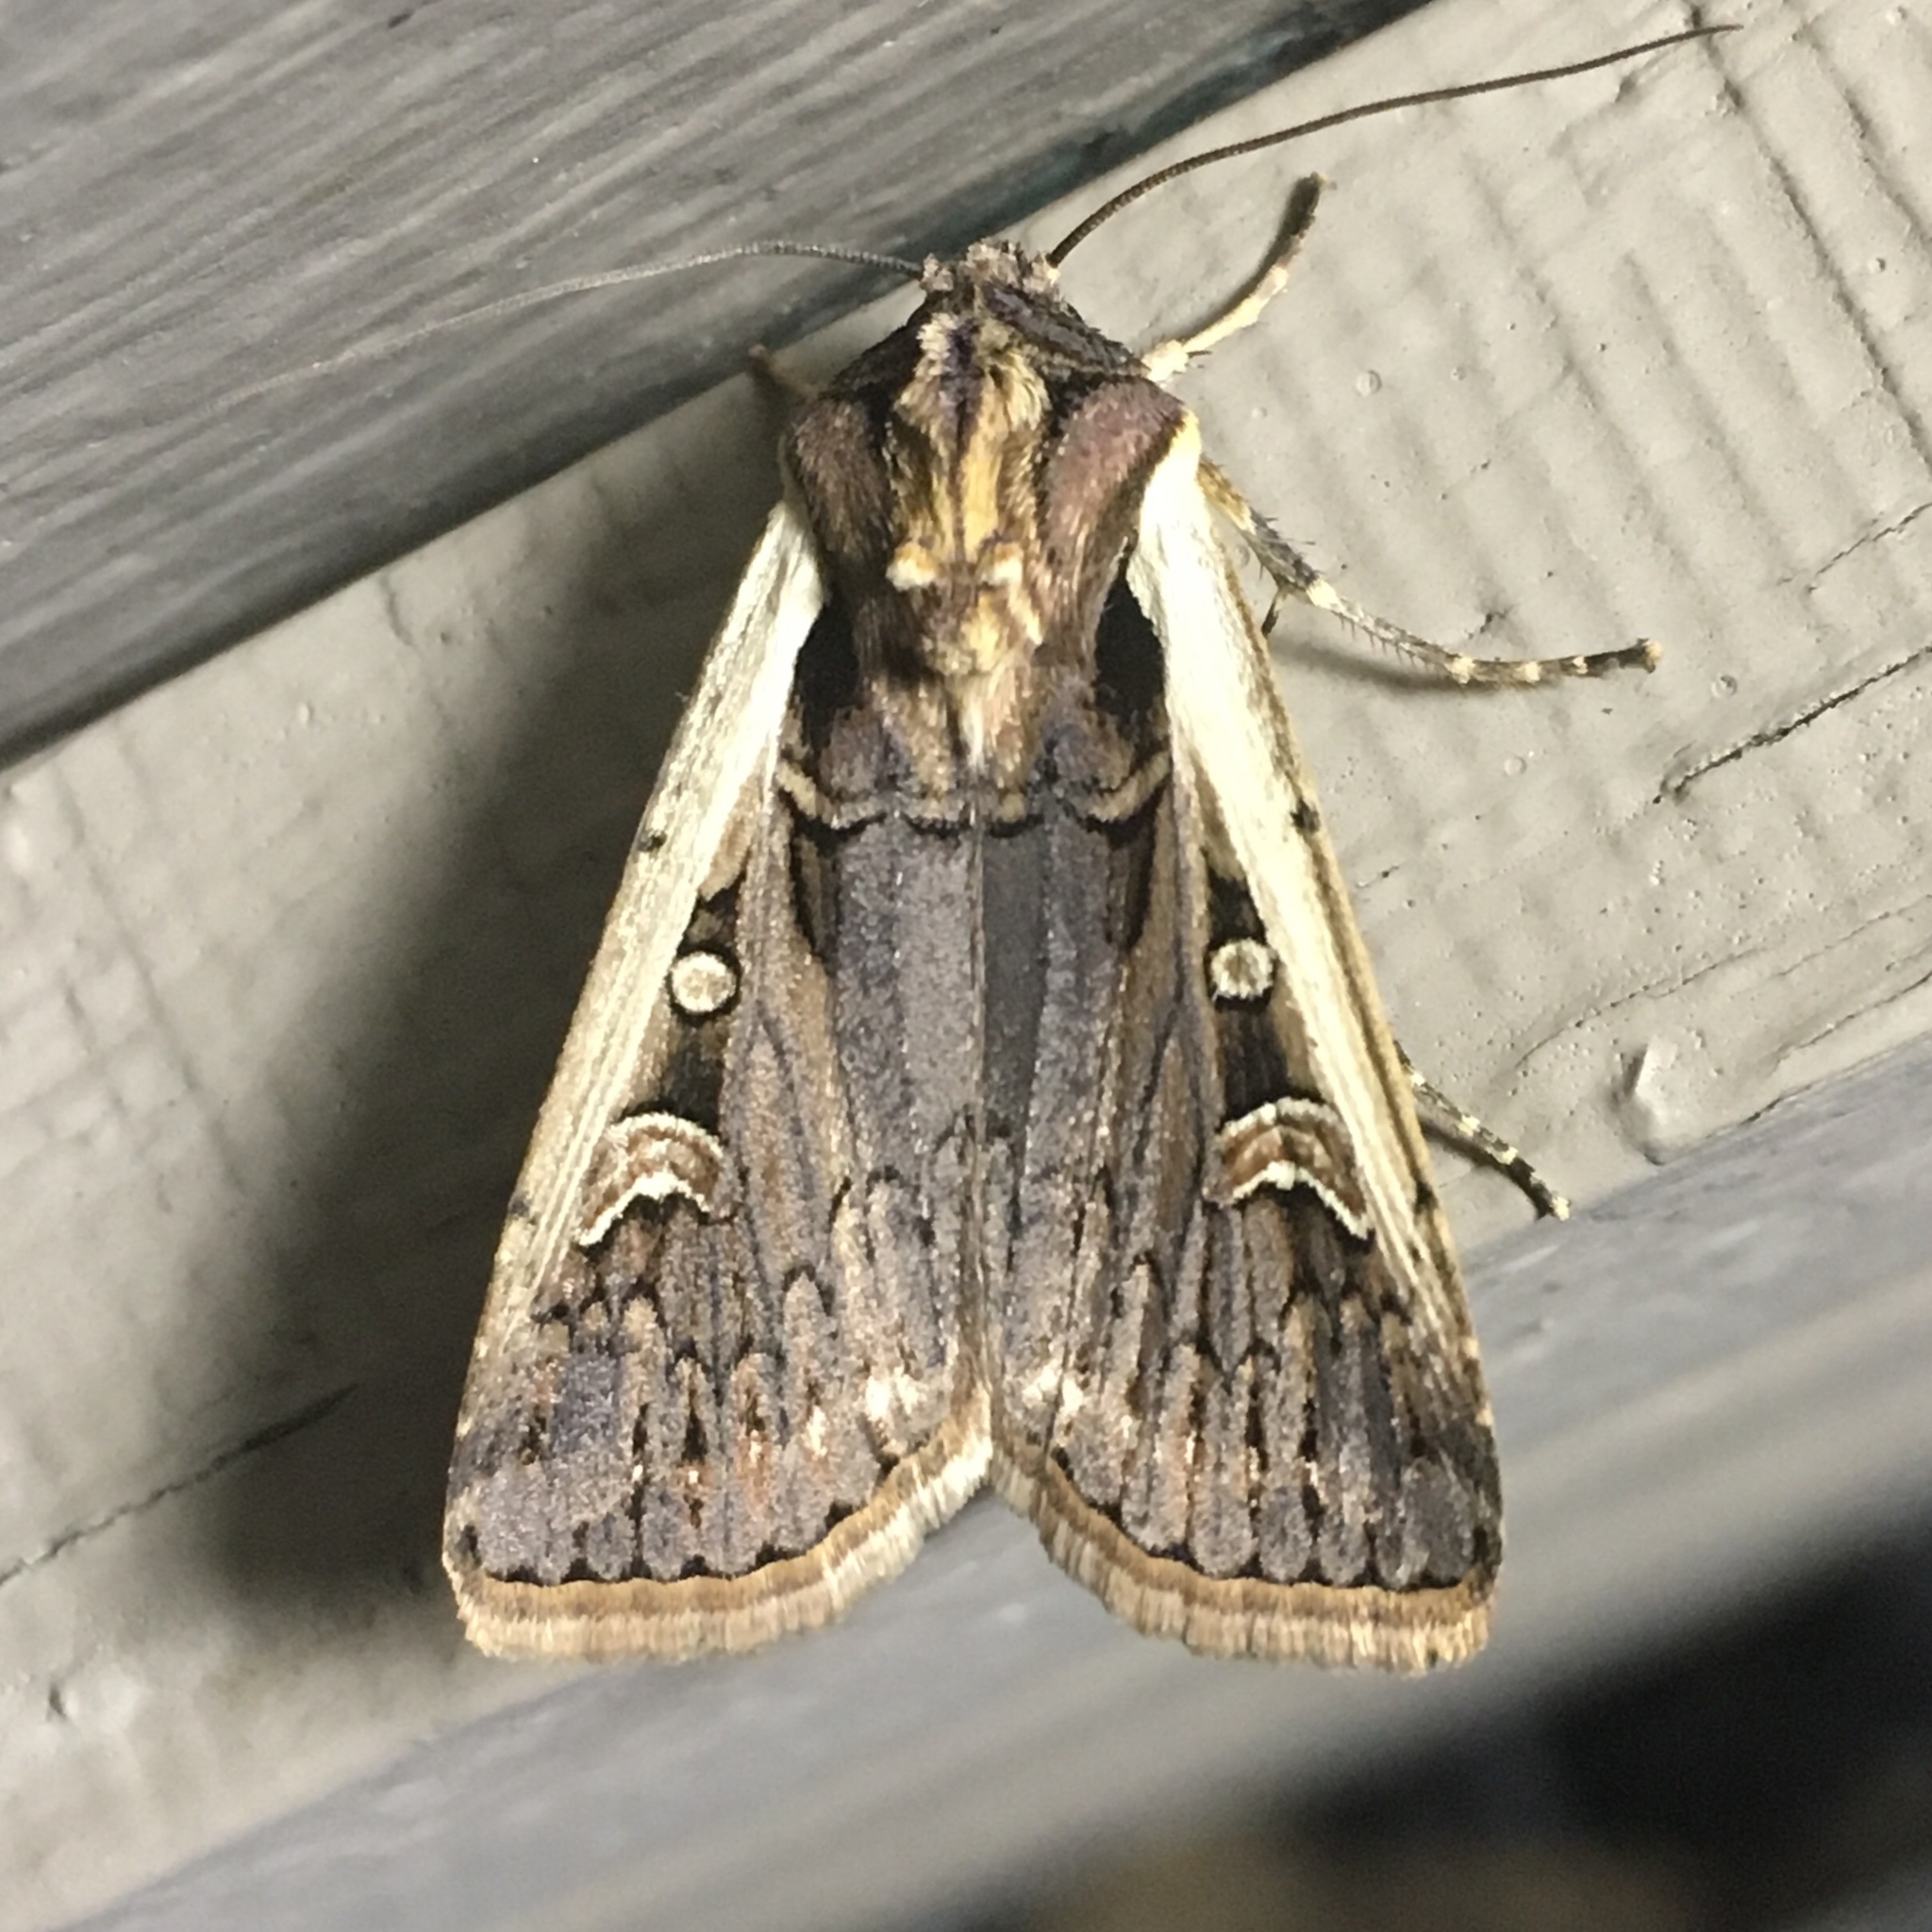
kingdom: Animalia
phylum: Arthropoda
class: Insecta
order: Lepidoptera
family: Noctuidae
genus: Striacosta
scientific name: Striacosta albicosta
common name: Western bean cutworm moth
